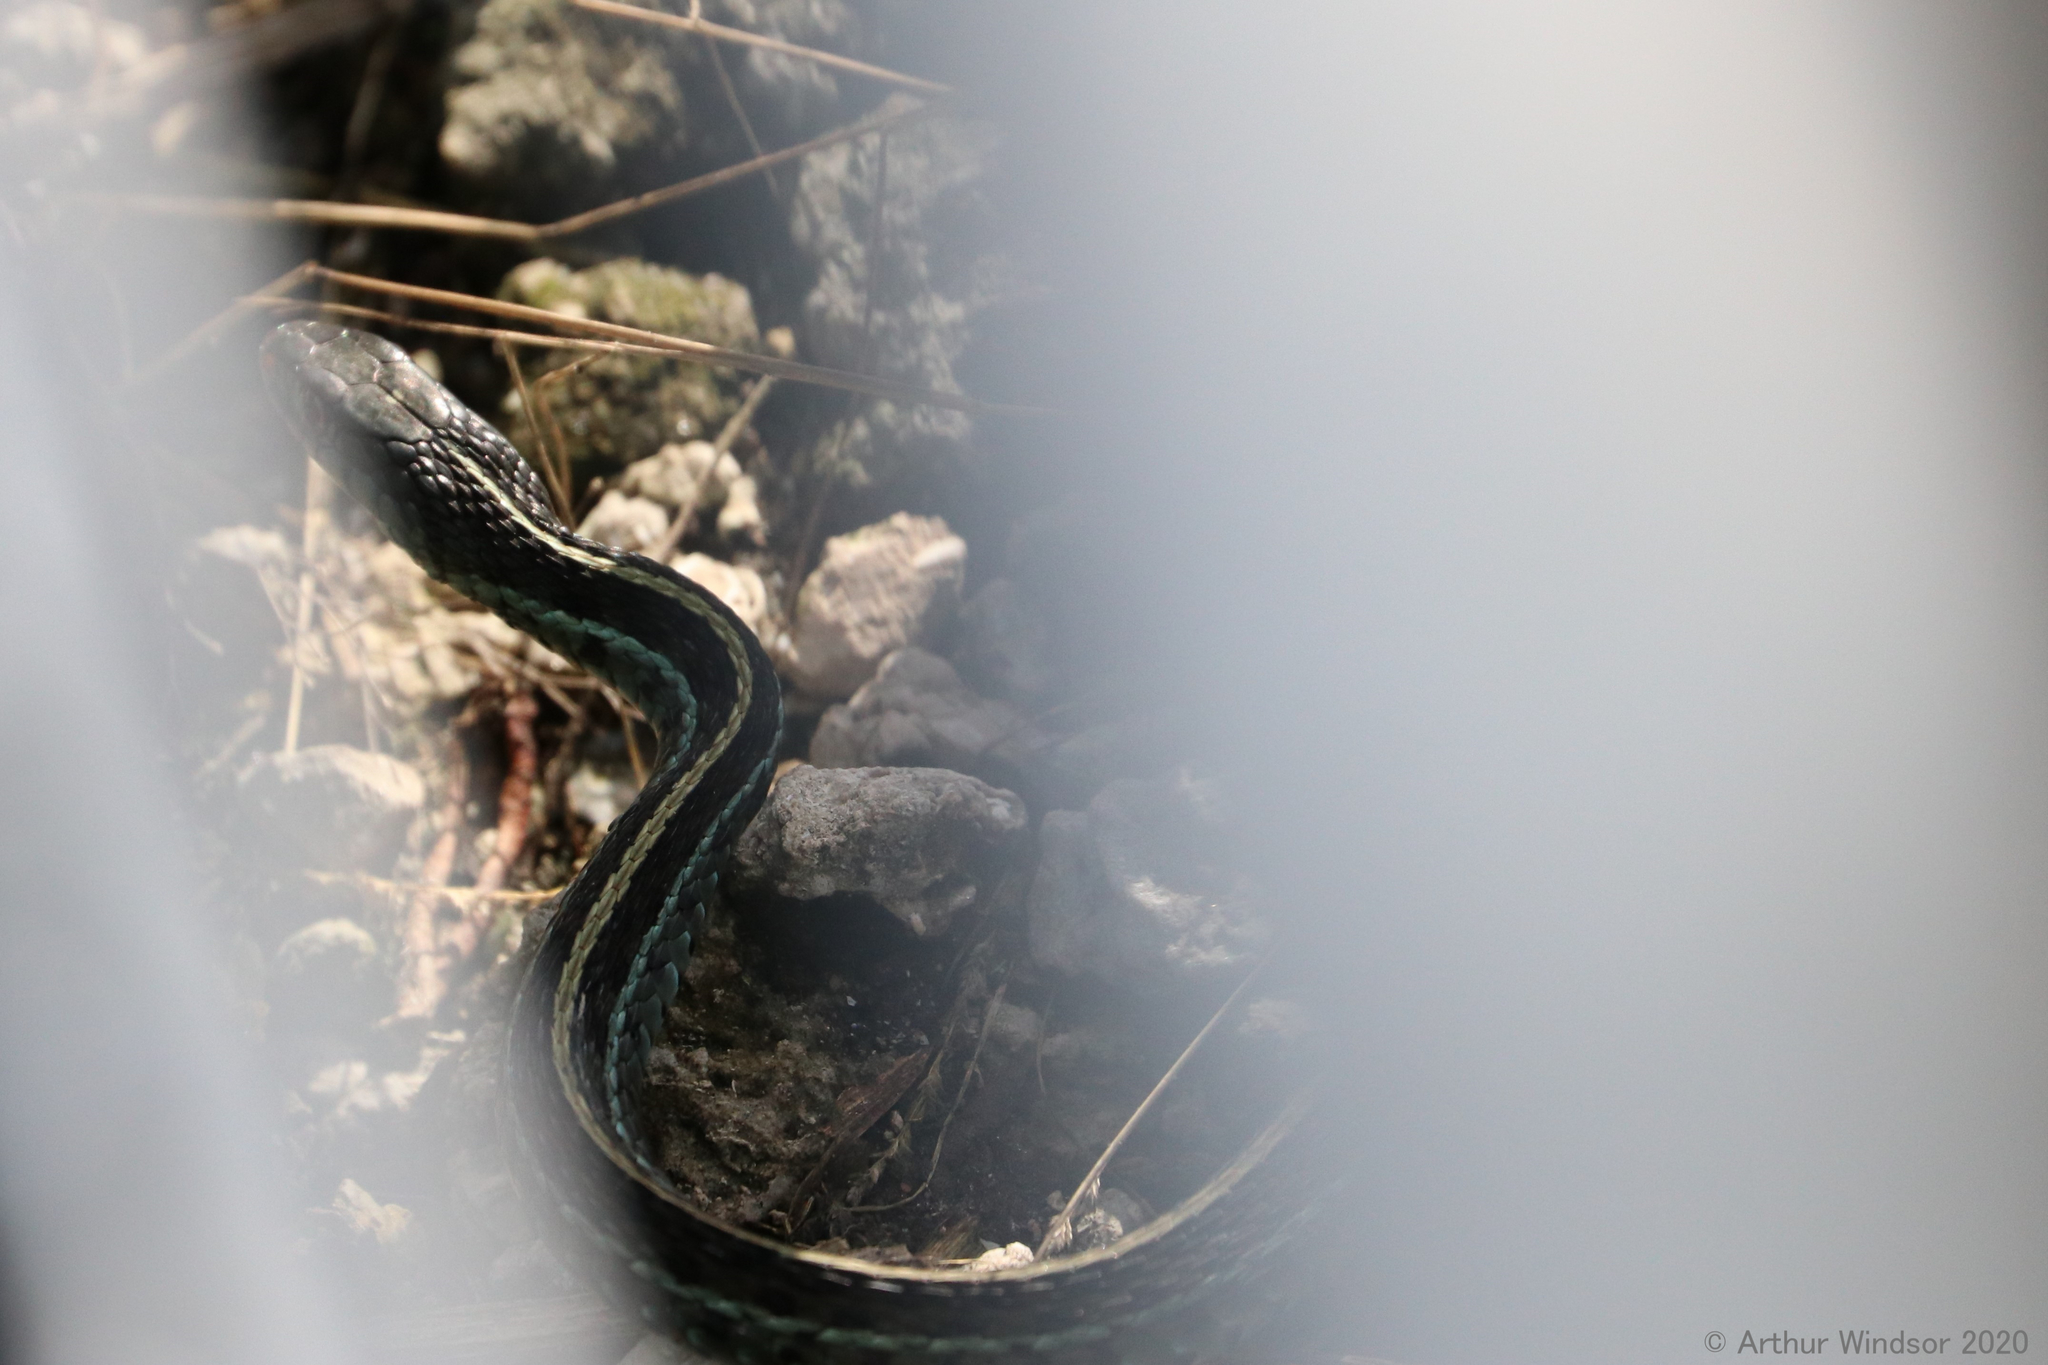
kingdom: Animalia
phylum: Chordata
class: Squamata
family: Colubridae
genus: Thamnophis
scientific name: Thamnophis sirtalis
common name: Common garter snake
